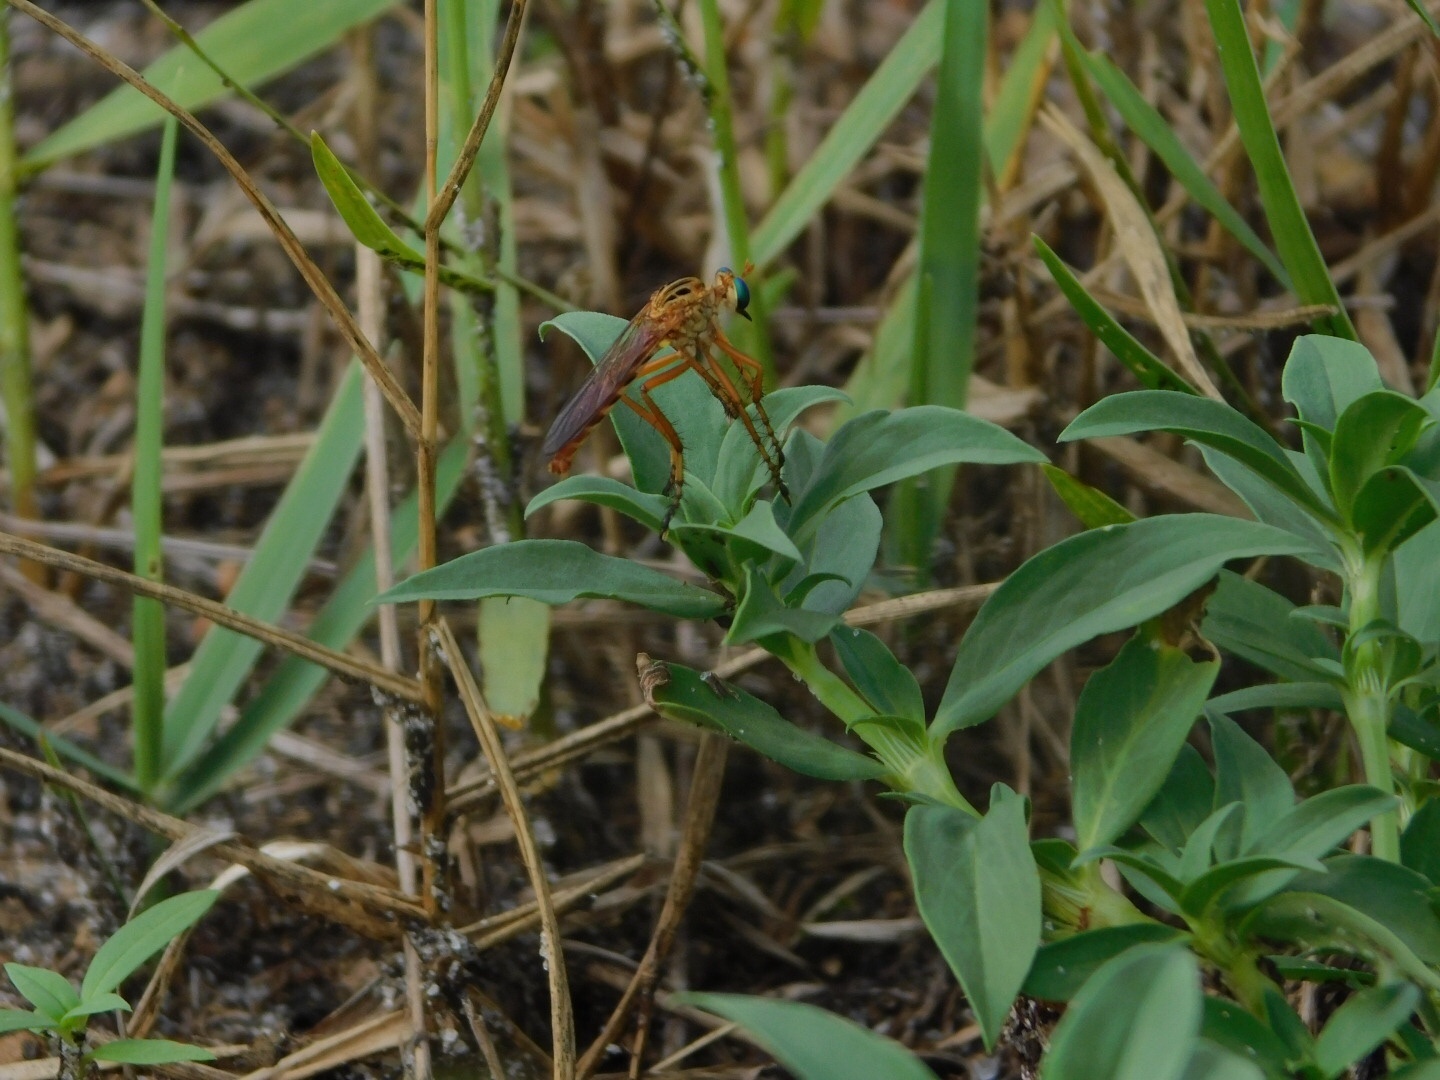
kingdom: Animalia
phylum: Arthropoda
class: Insecta
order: Diptera
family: Asilidae
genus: Diogmites
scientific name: Diogmites esuriens
